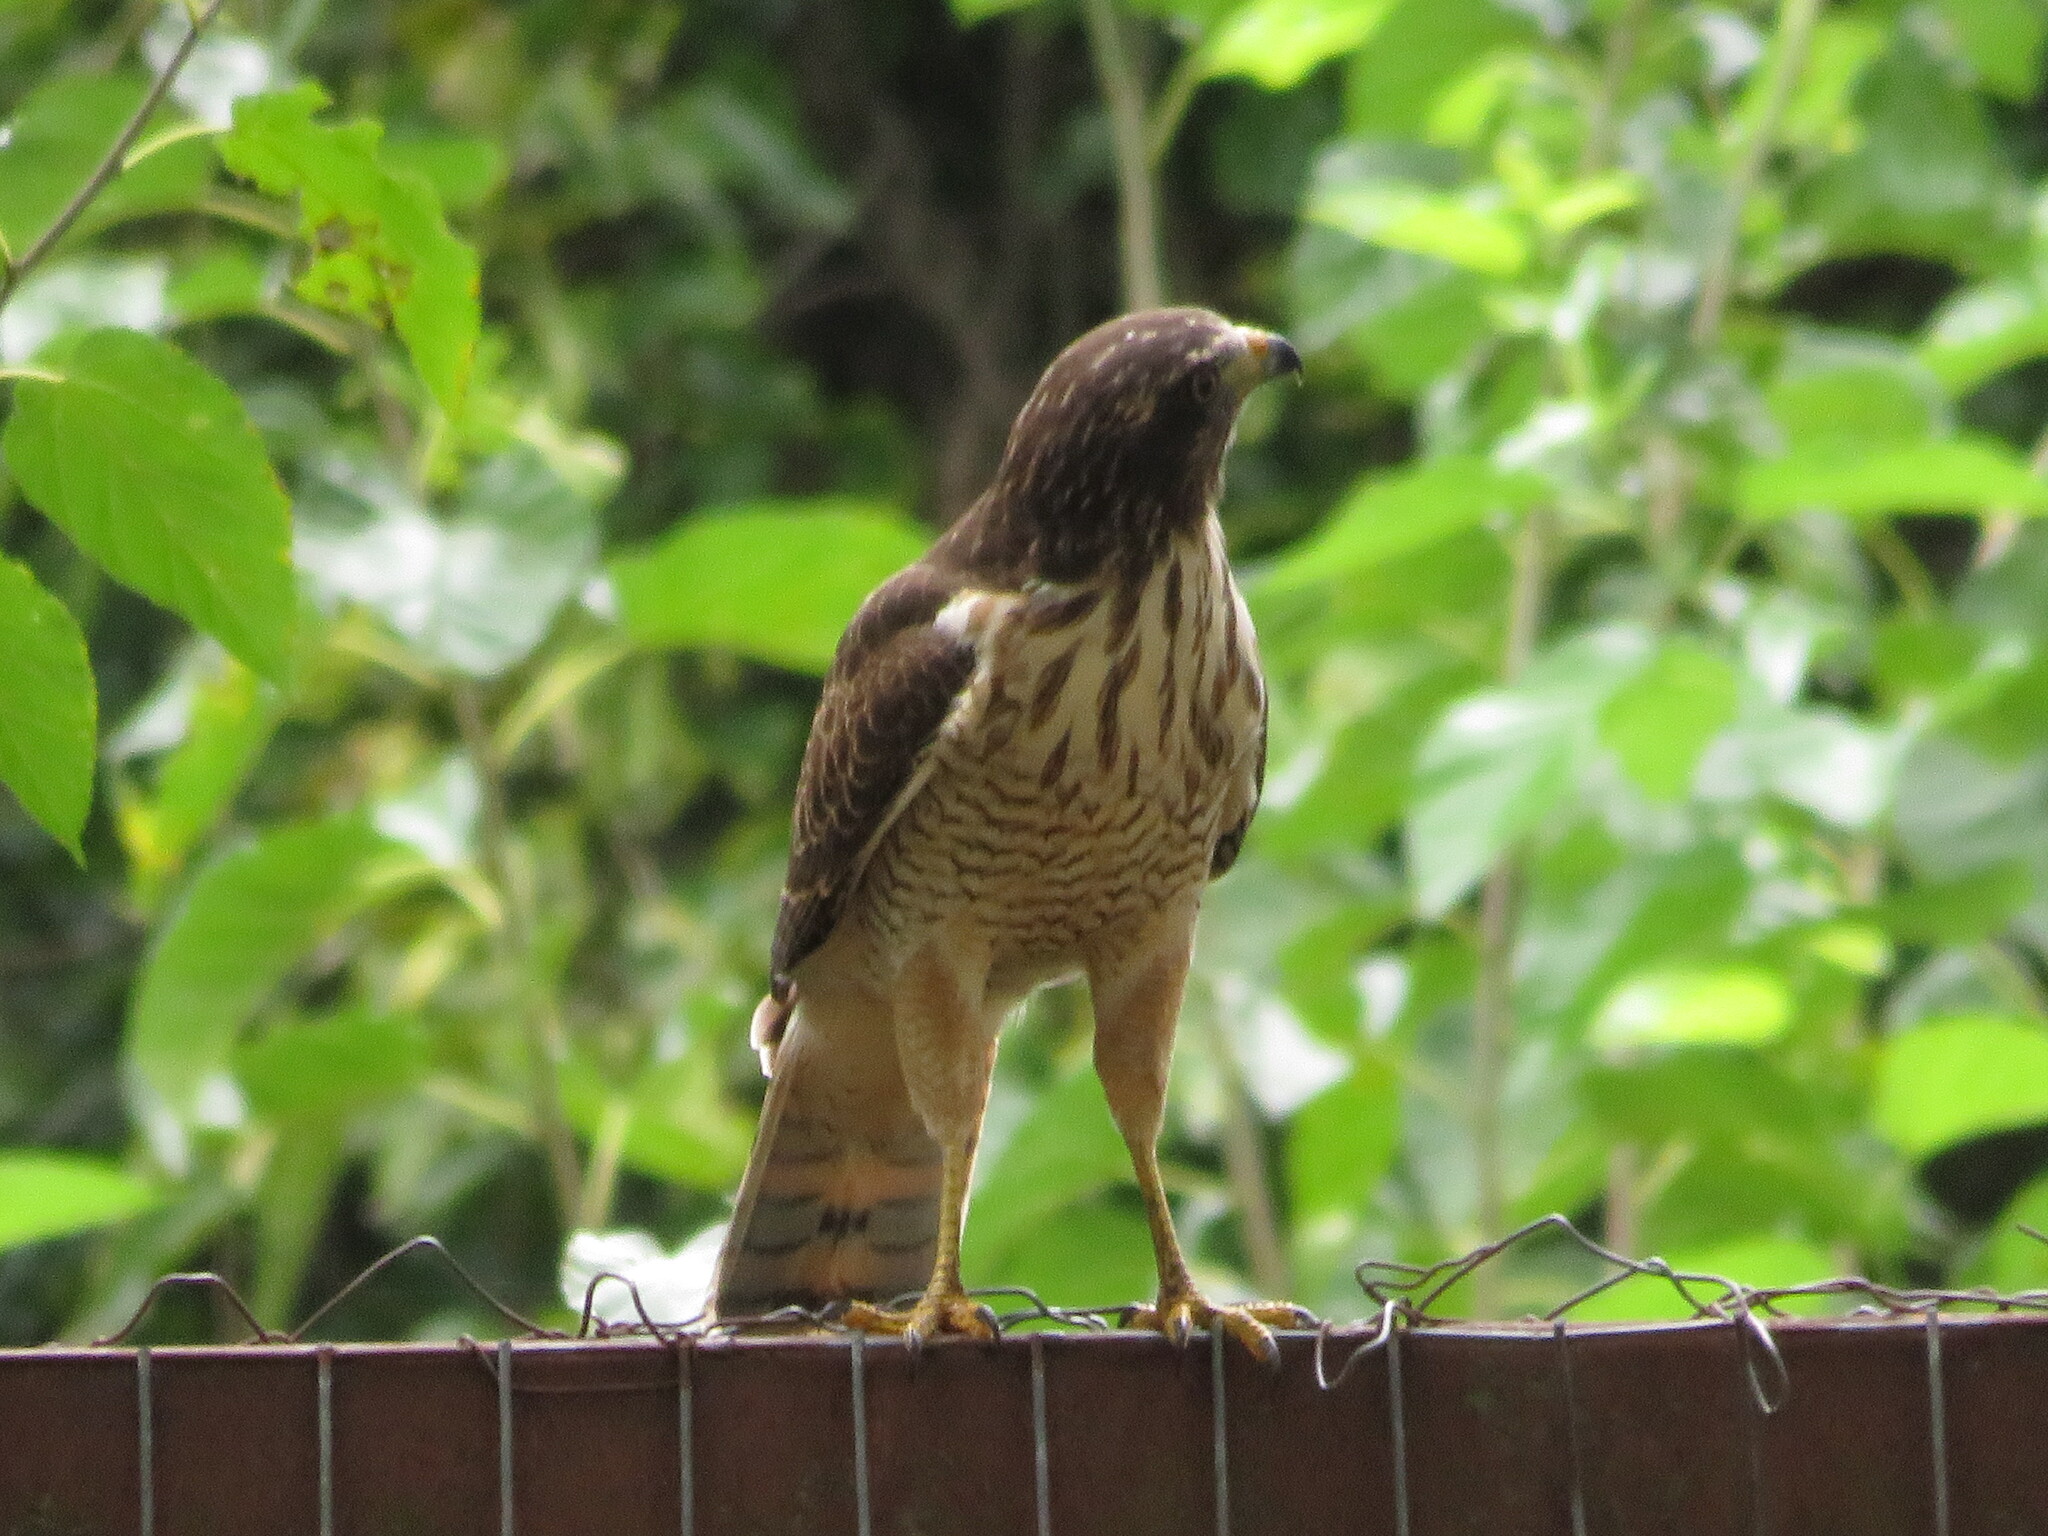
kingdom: Animalia
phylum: Chordata
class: Aves
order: Accipitriformes
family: Accipitridae
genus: Rupornis
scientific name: Rupornis magnirostris
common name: Roadside hawk
